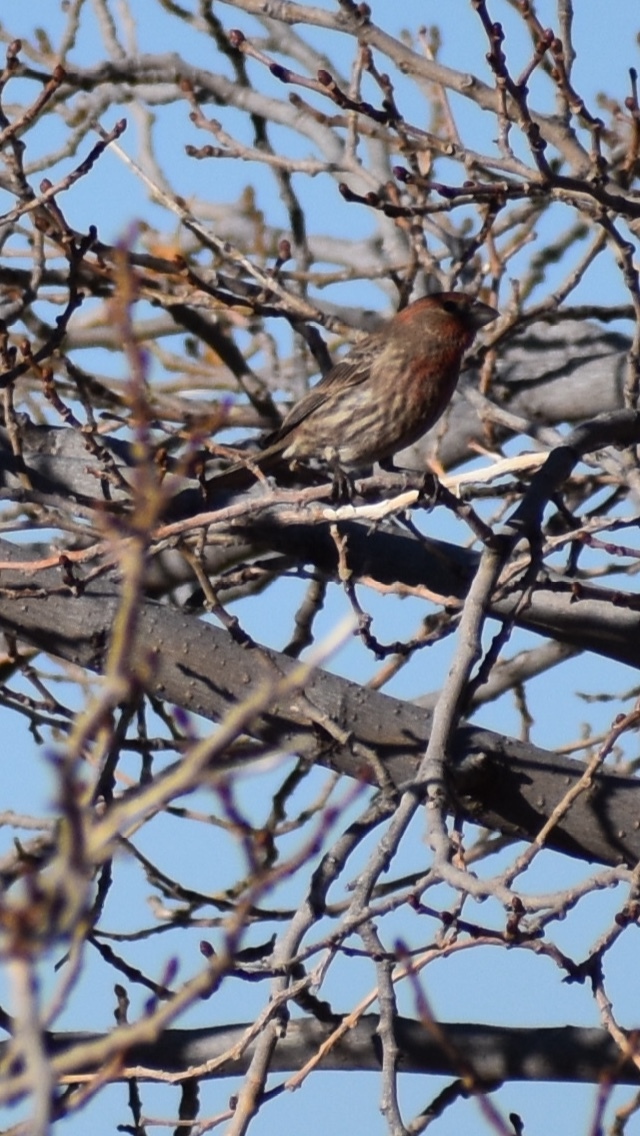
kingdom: Animalia
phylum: Chordata
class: Aves
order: Passeriformes
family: Fringillidae
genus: Haemorhous
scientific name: Haemorhous mexicanus
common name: House finch
